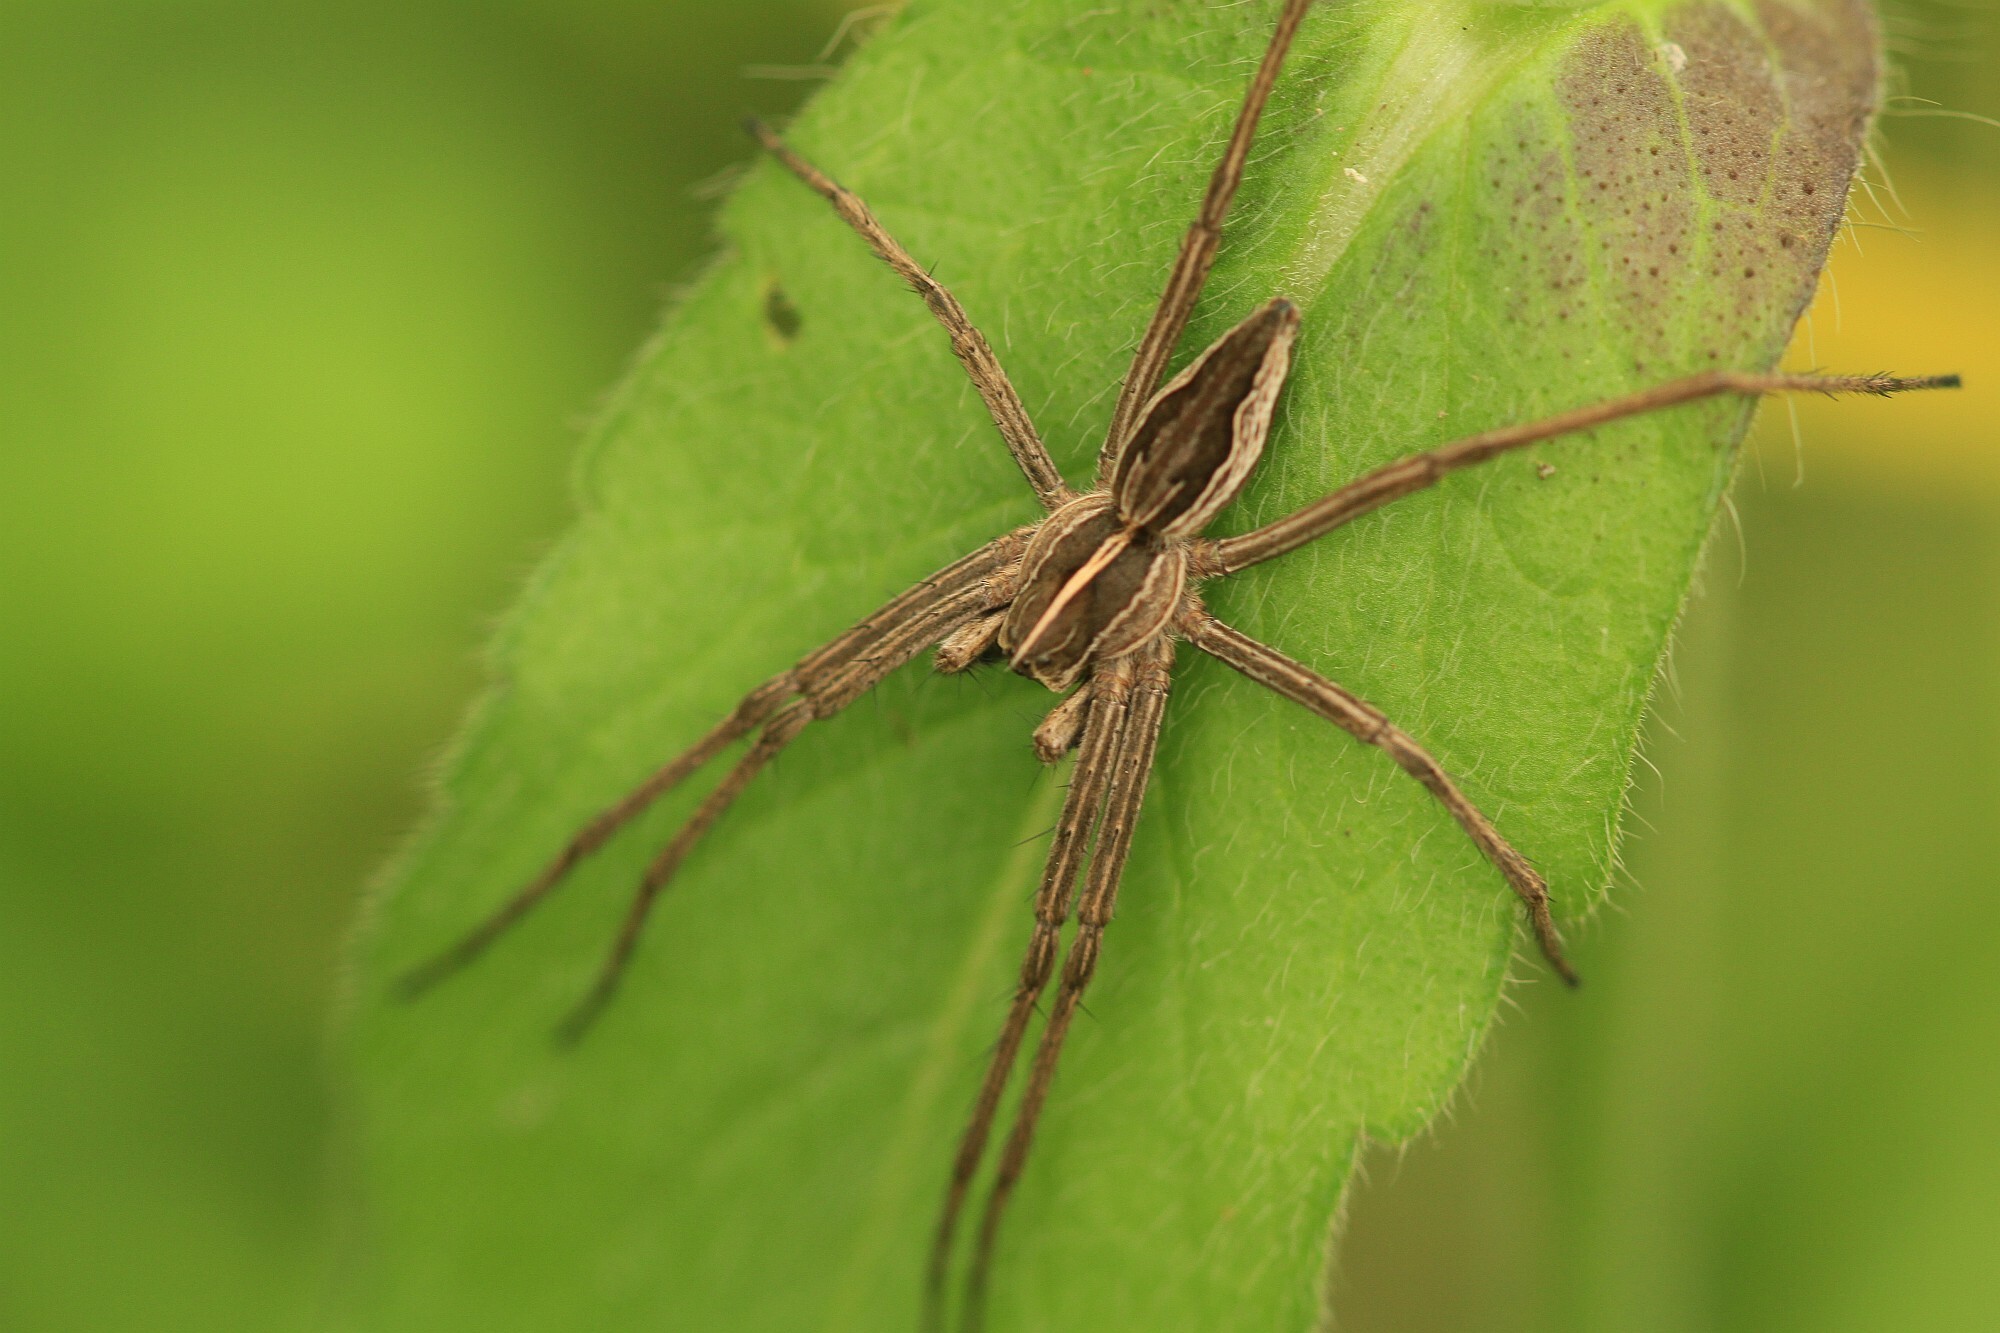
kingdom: Animalia
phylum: Arthropoda
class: Arachnida
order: Araneae
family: Pisauridae
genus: Pisaura
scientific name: Pisaura mirabilis
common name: Tent spider
